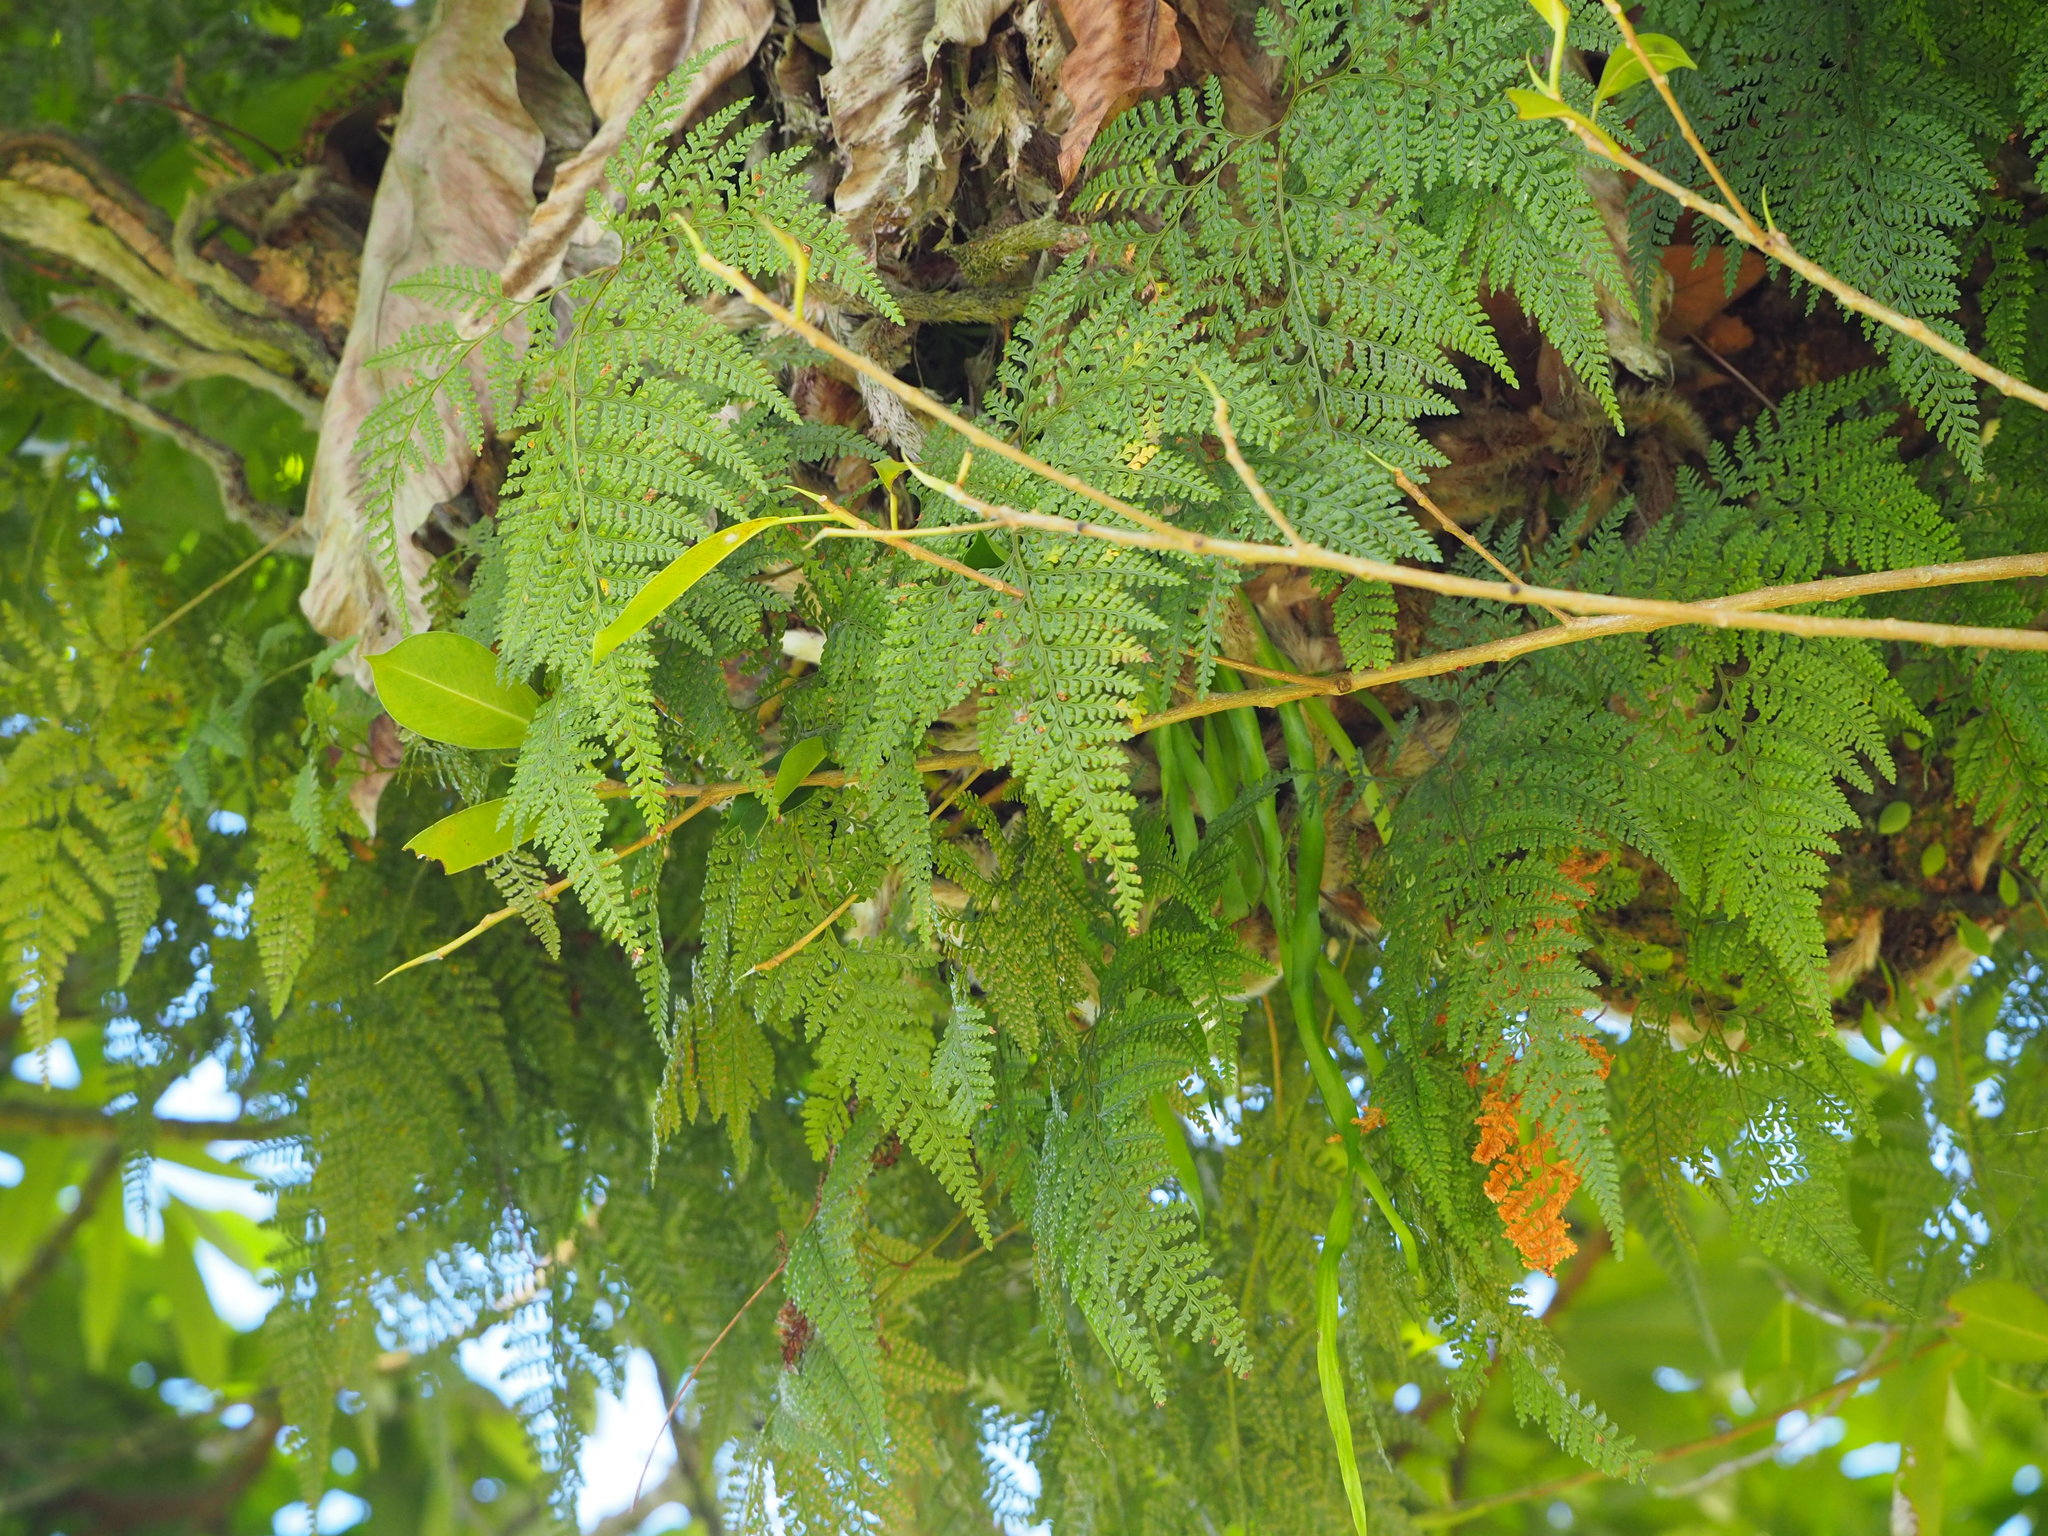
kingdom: Plantae
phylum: Tracheophyta
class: Polypodiopsida
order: Polypodiales
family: Davalliaceae
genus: Davallia
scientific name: Davallia griffithiana
